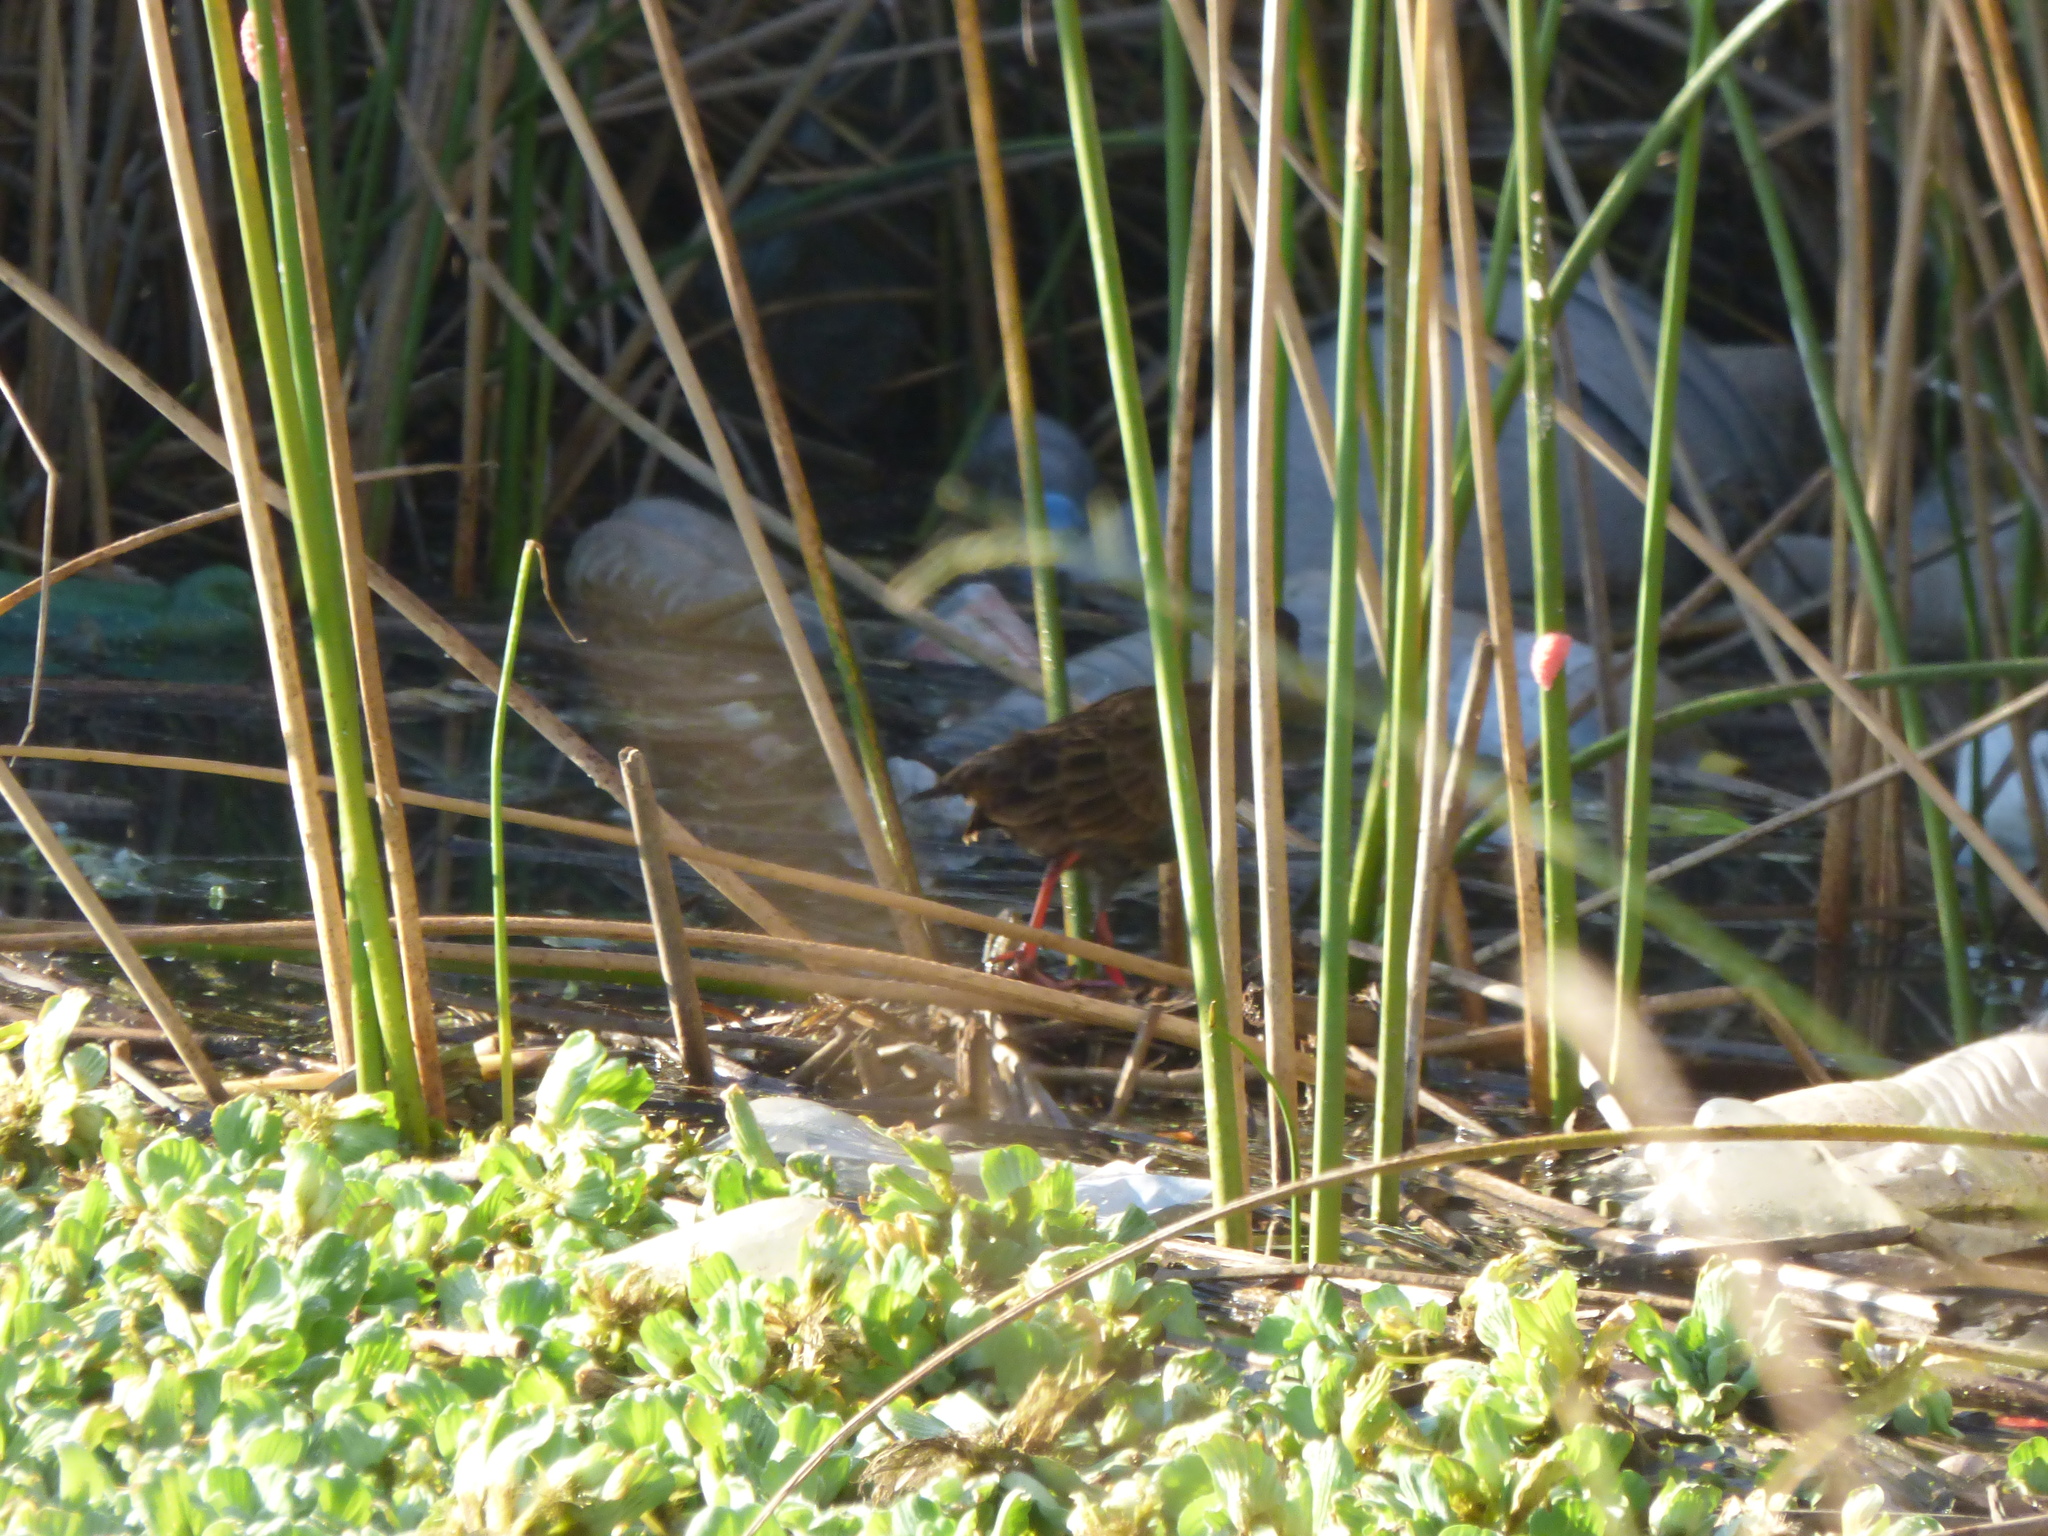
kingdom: Animalia
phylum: Chordata
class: Aves
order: Gruiformes
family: Rallidae
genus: Pardirallus
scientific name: Pardirallus sanguinolentus
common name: Plumbeous rail
